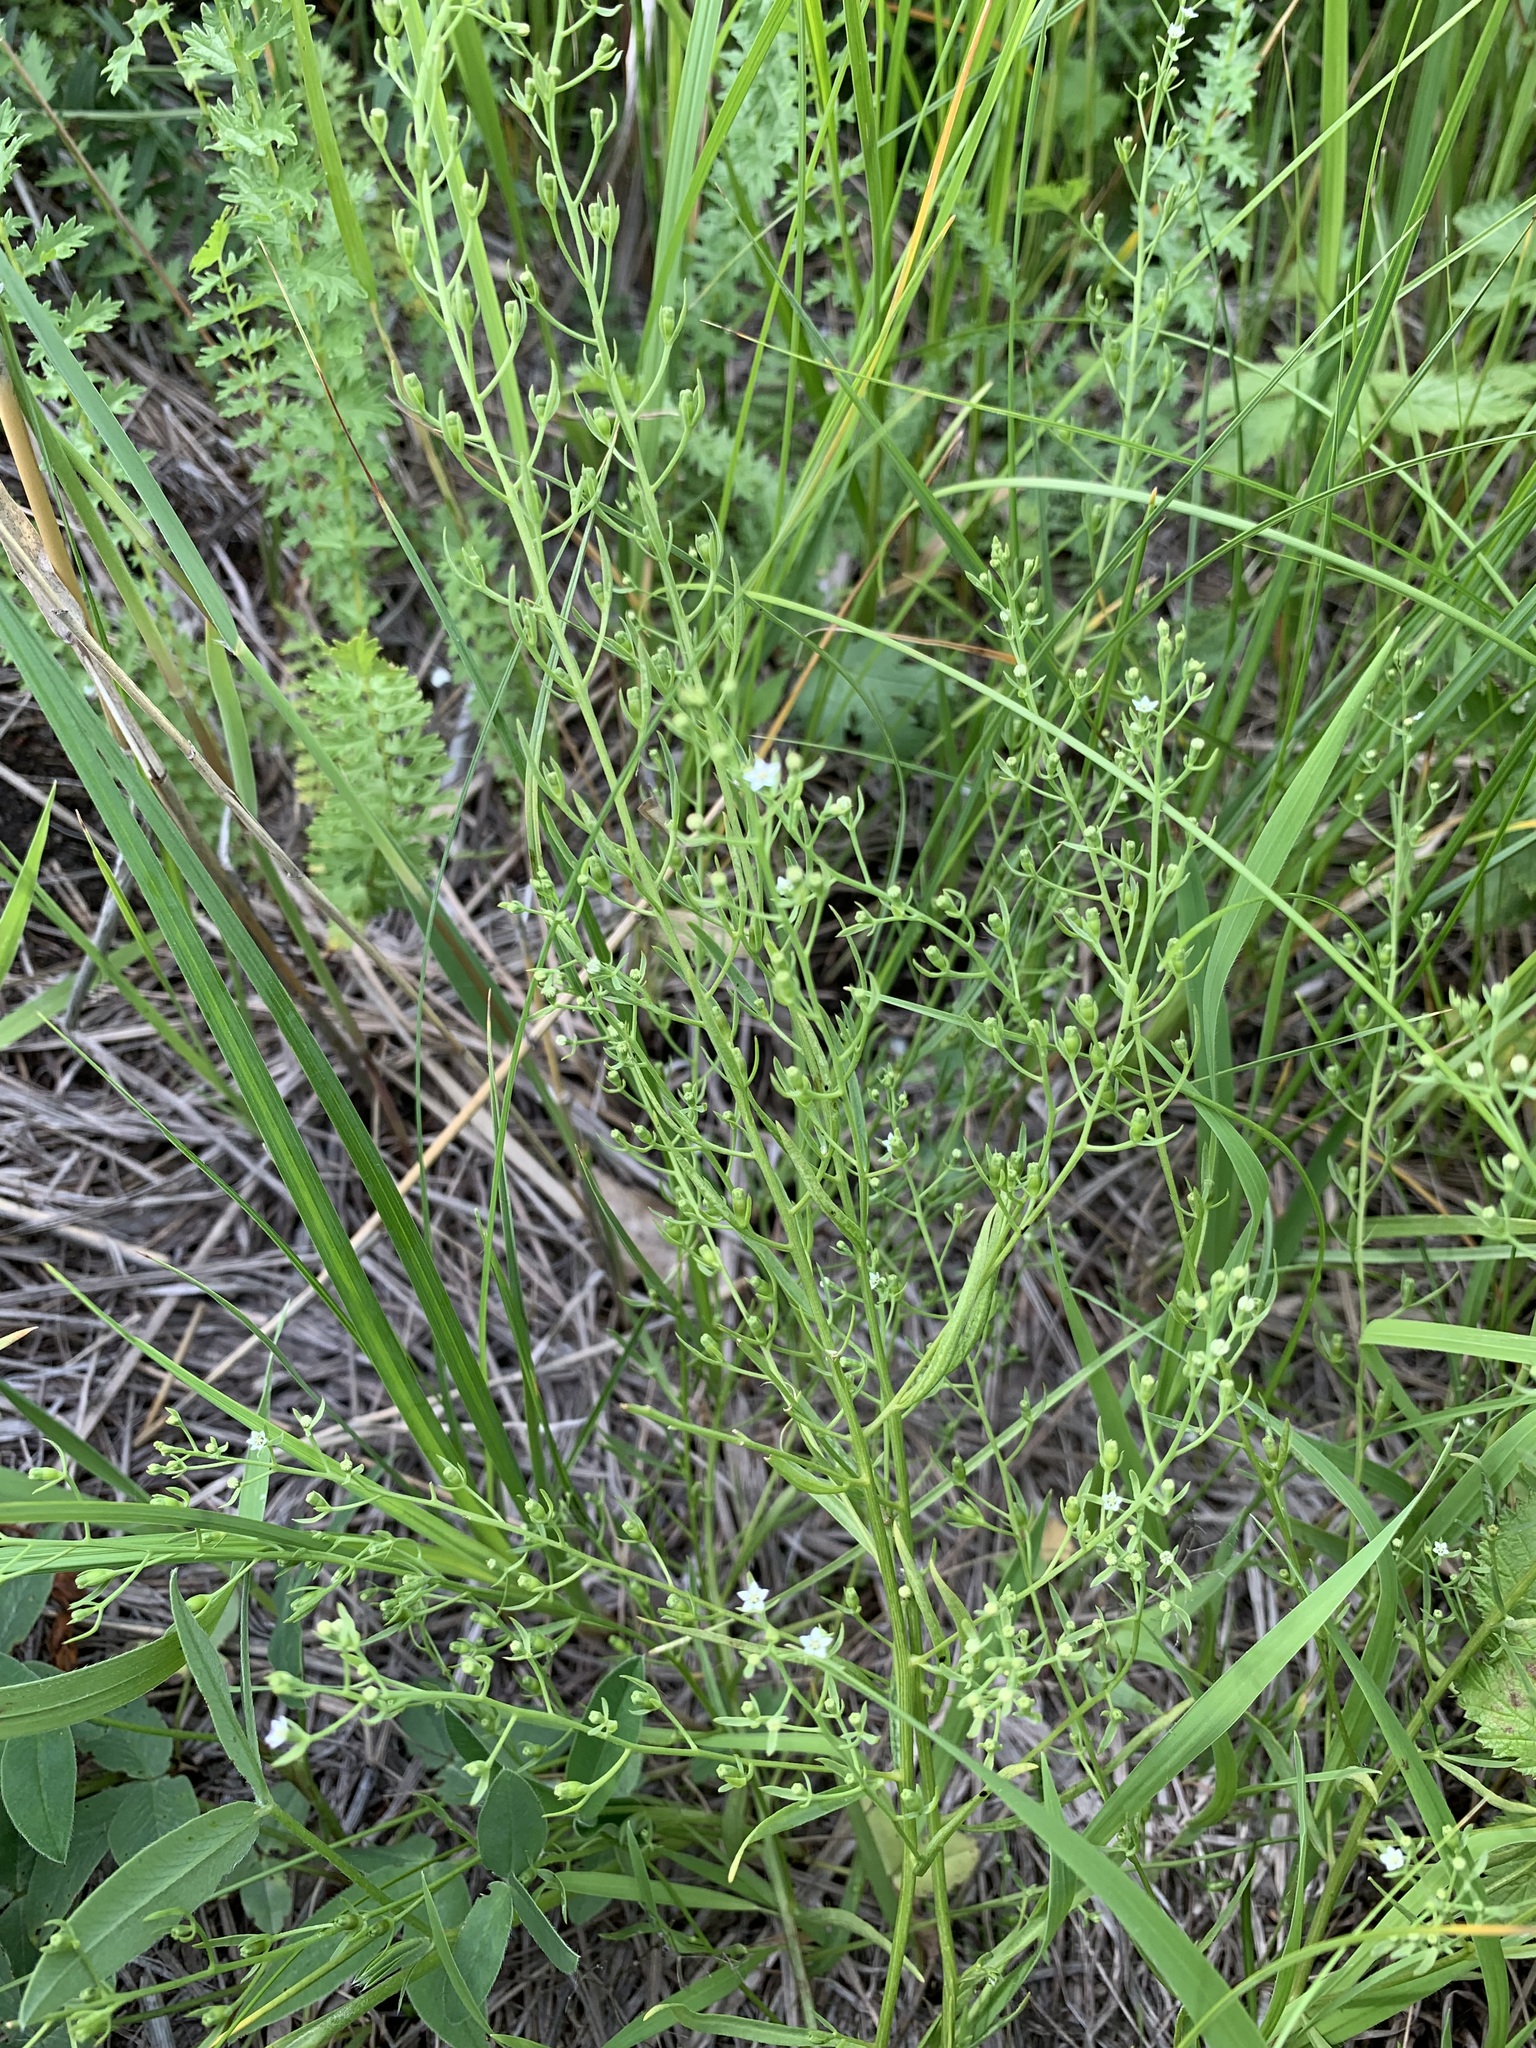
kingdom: Plantae
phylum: Tracheophyta
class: Magnoliopsida
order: Santalales
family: Thesiaceae
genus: Thesium
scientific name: Thesium ramosum
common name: Field thesium
